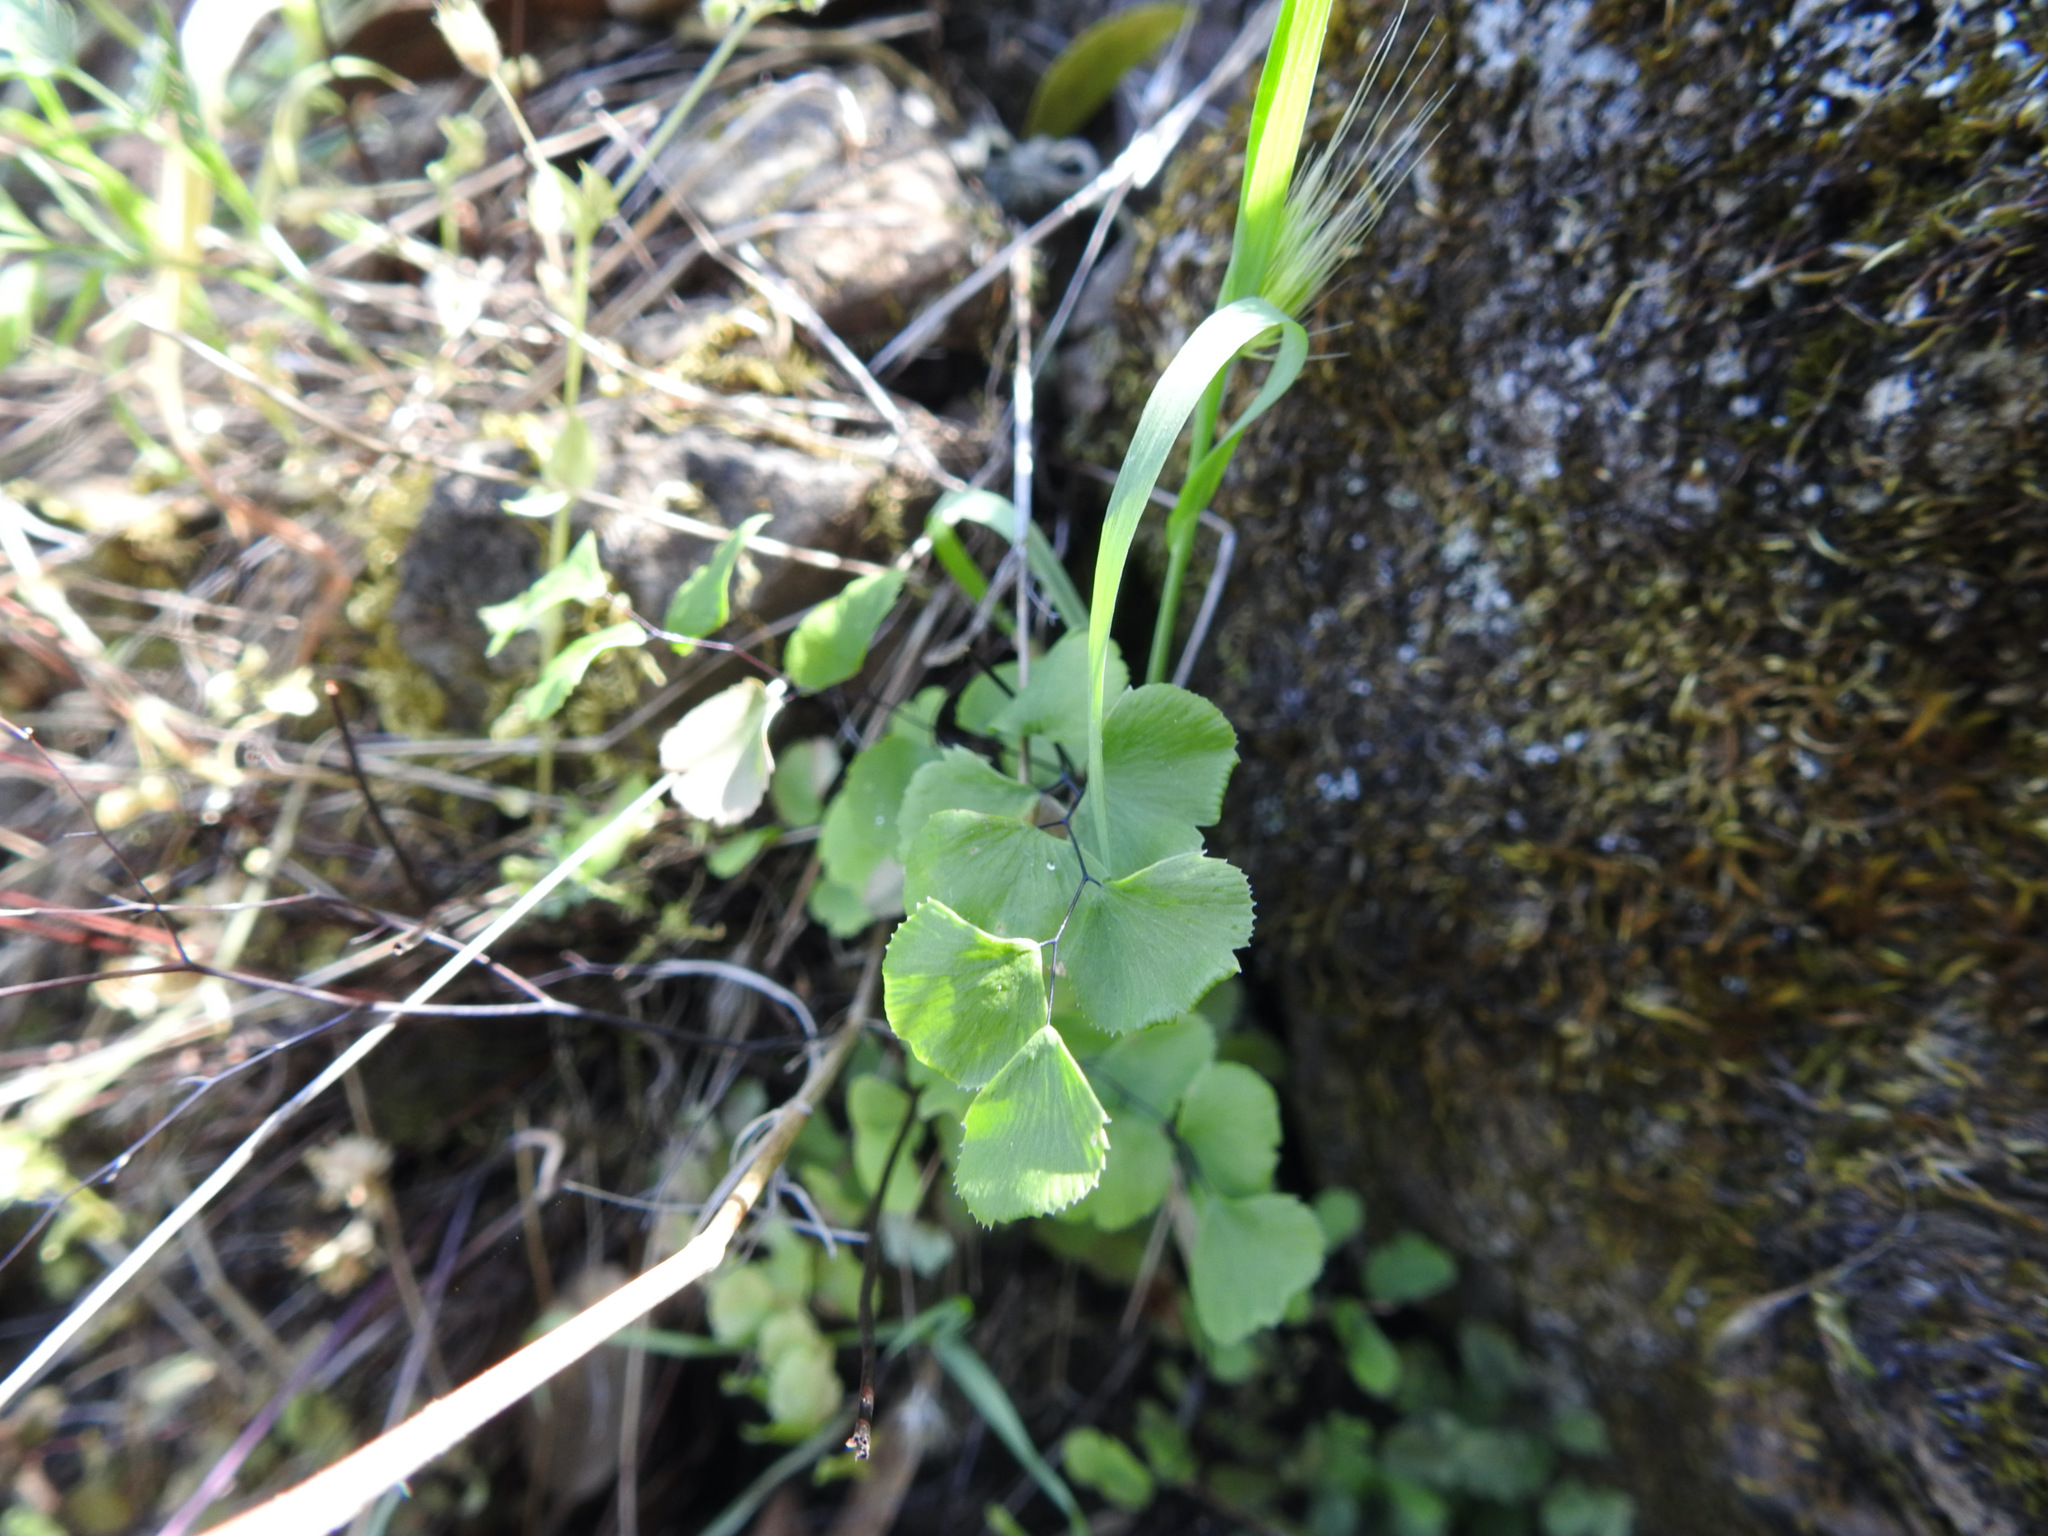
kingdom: Plantae
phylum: Tracheophyta
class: Polypodiopsida
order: Polypodiales
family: Pteridaceae
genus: Adiantum
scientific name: Adiantum jordanii
